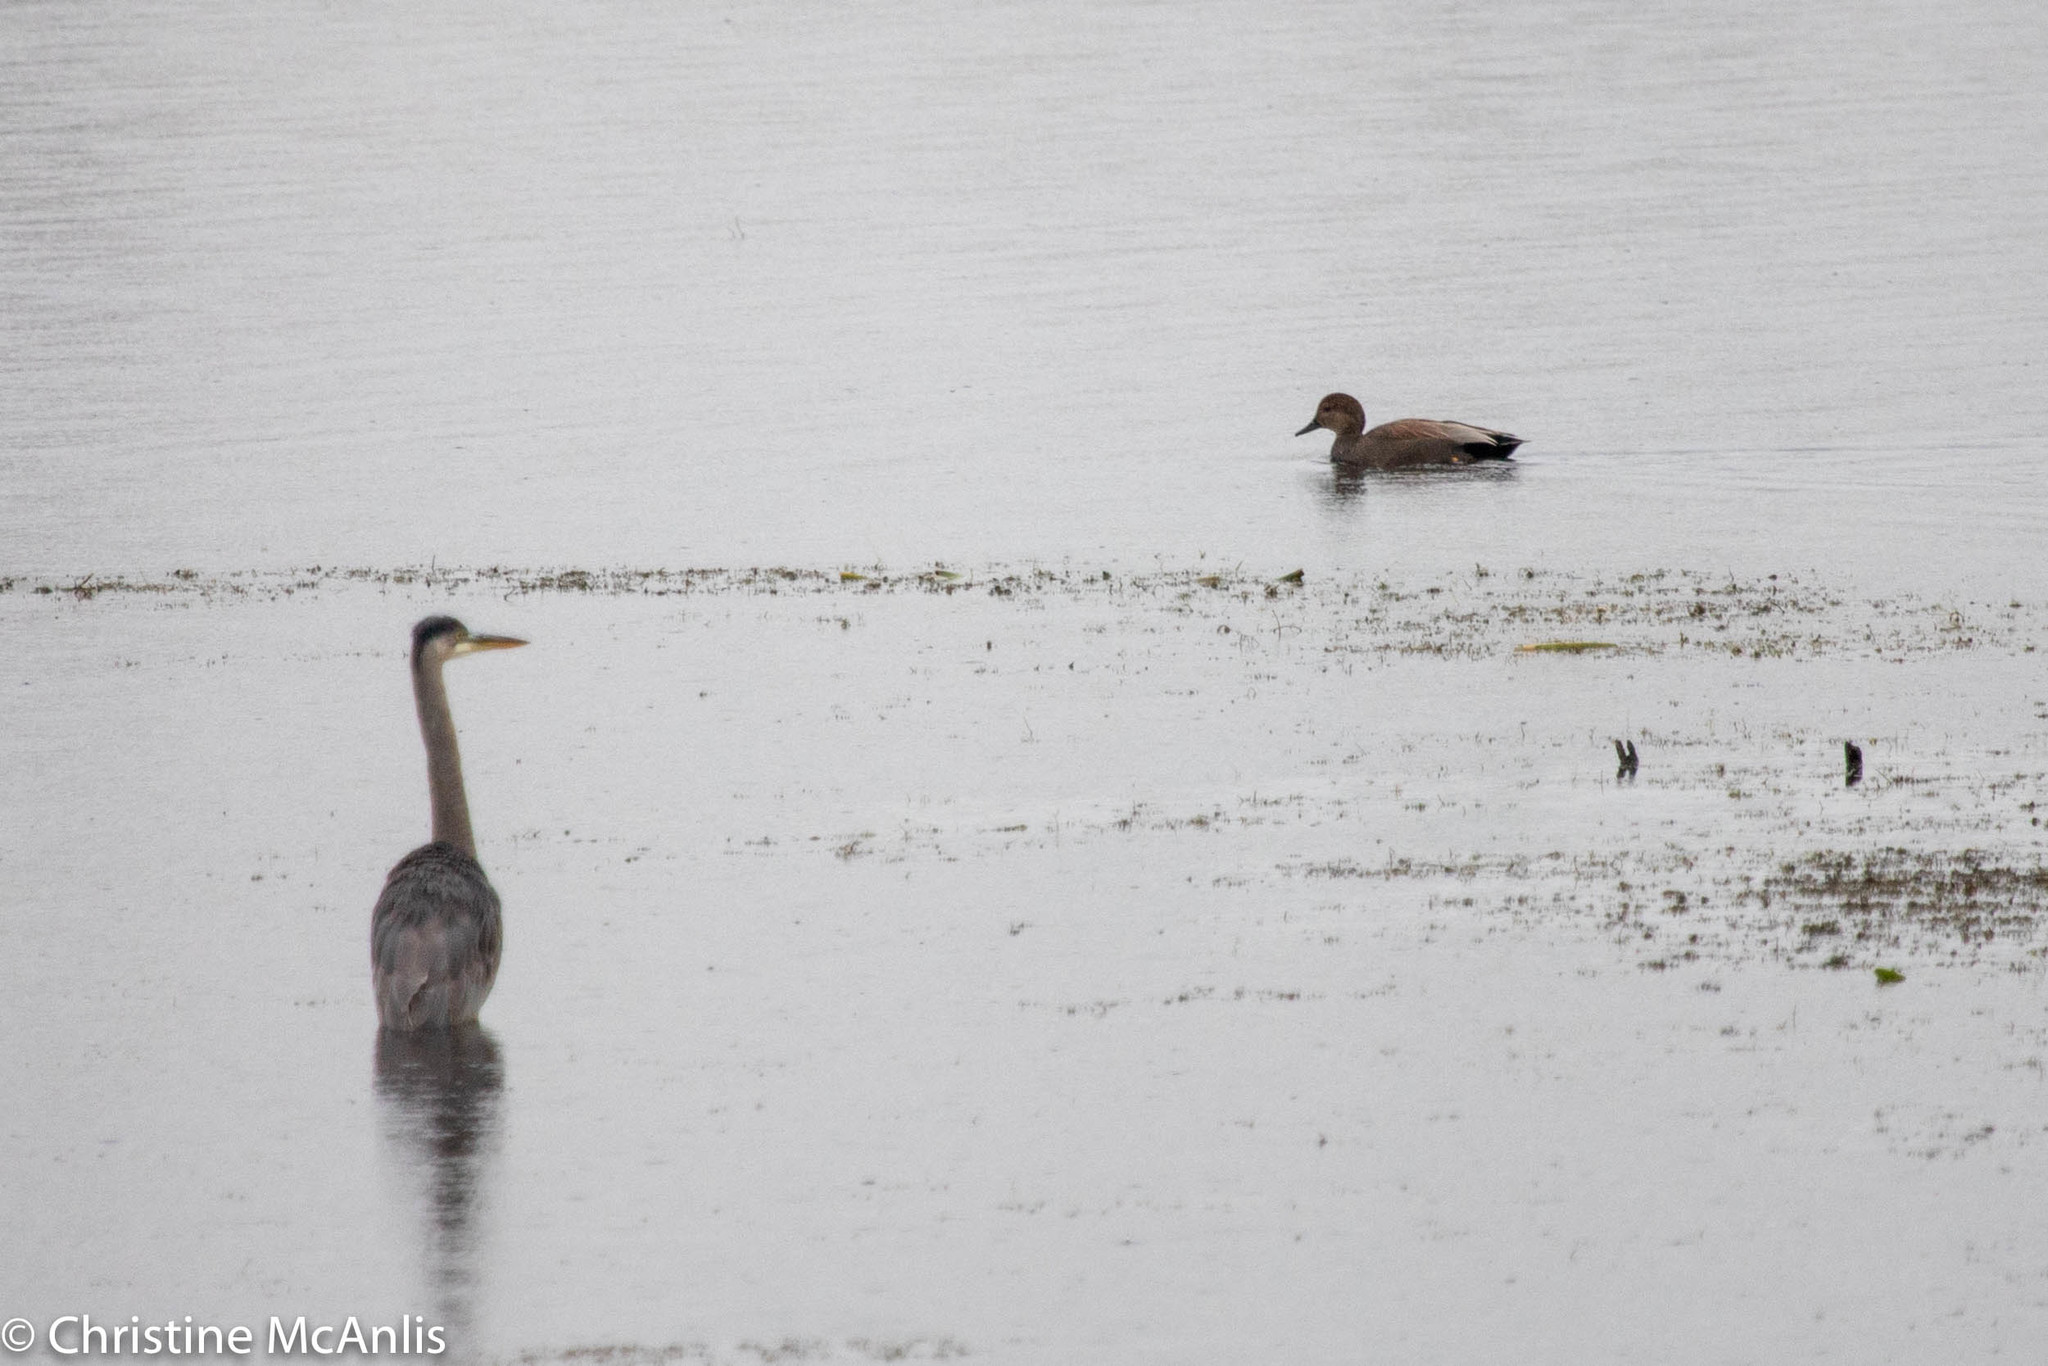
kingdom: Animalia
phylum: Chordata
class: Aves
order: Anseriformes
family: Anatidae
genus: Mareca
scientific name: Mareca strepera
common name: Gadwall
